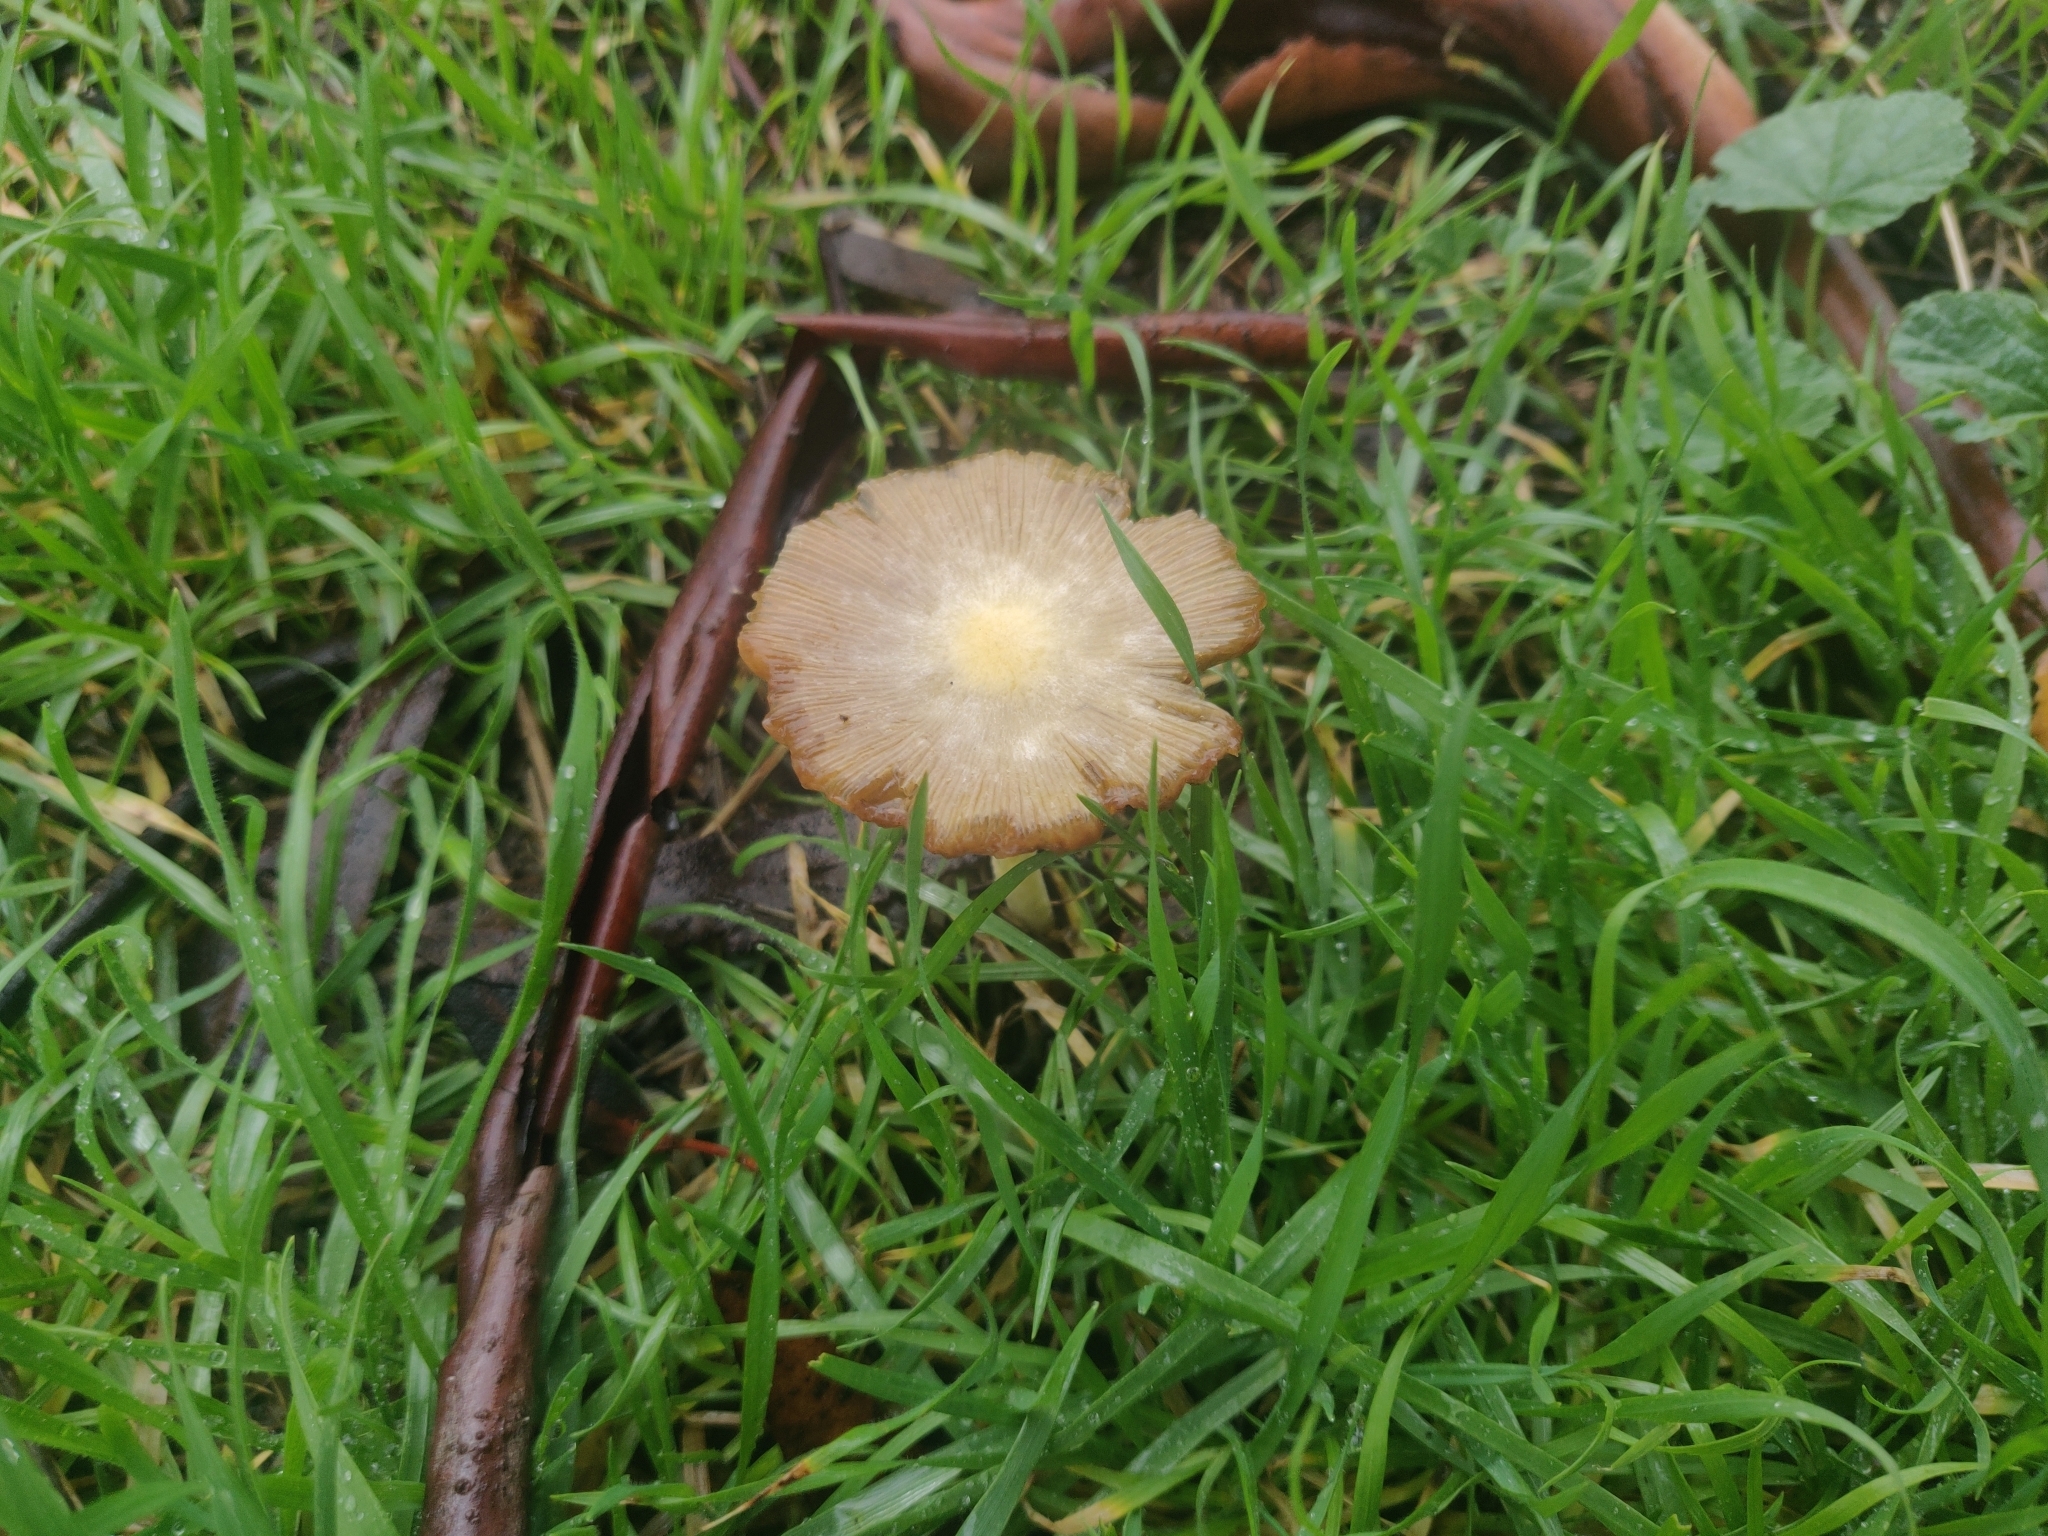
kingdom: Fungi
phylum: Basidiomycota
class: Agaricomycetes
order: Agaricales
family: Strophariaceae
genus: Leratiomyces
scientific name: Leratiomyces percevalii
